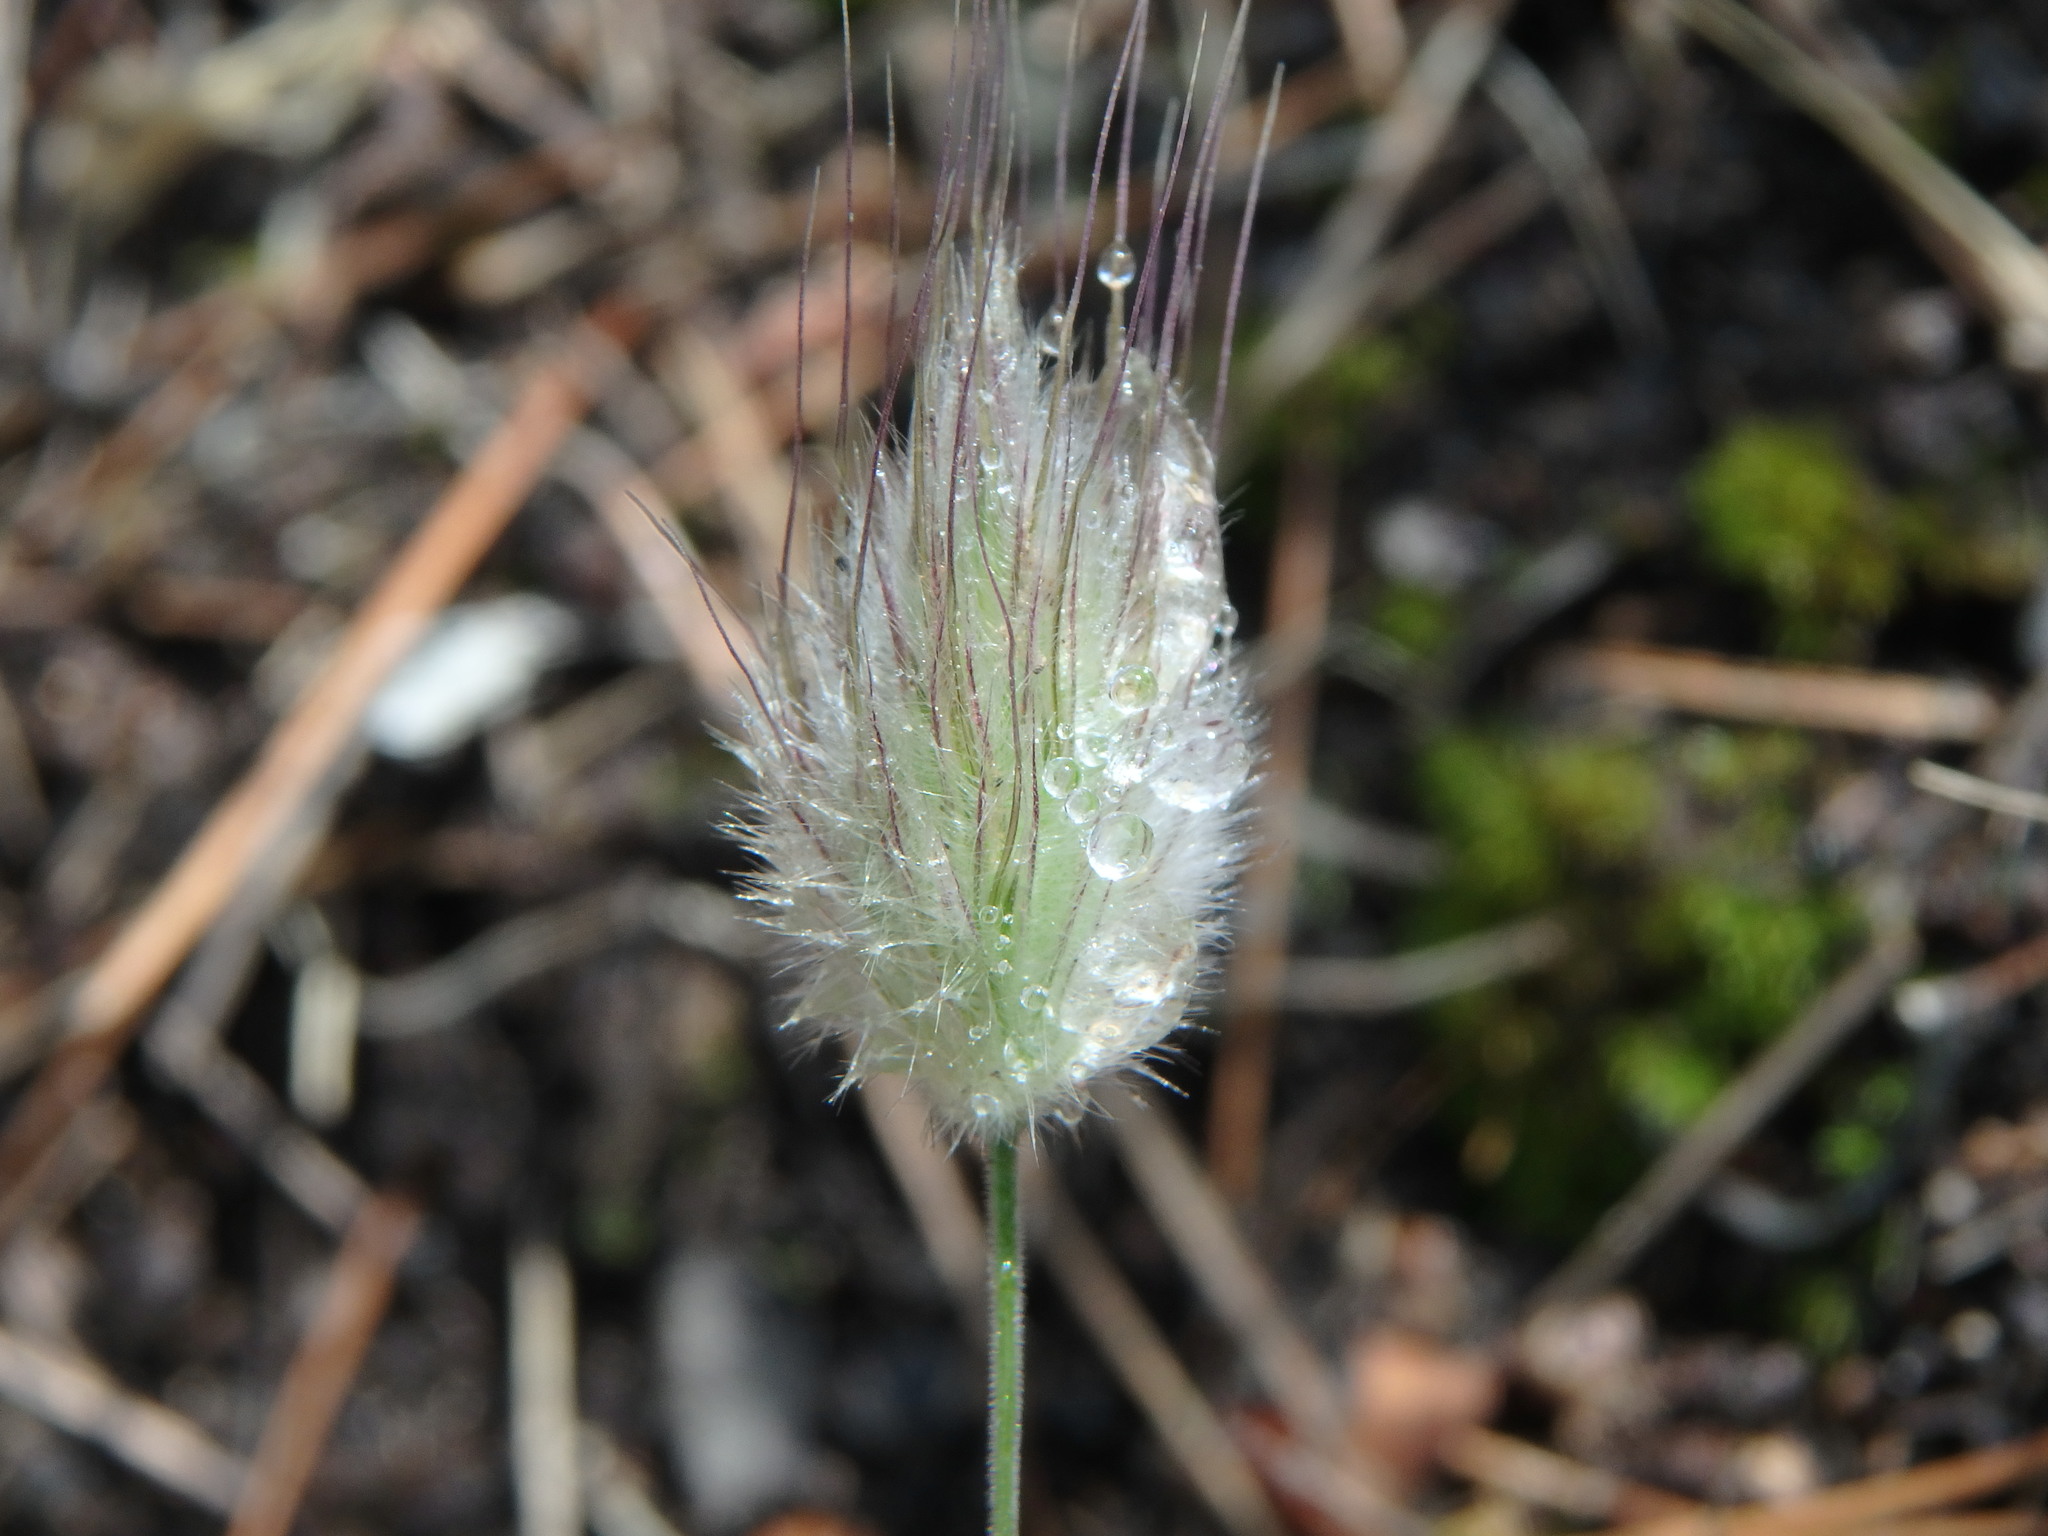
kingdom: Plantae
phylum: Tracheophyta
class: Liliopsida
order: Poales
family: Poaceae
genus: Lagurus
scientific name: Lagurus ovatus
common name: Hare's-tail
